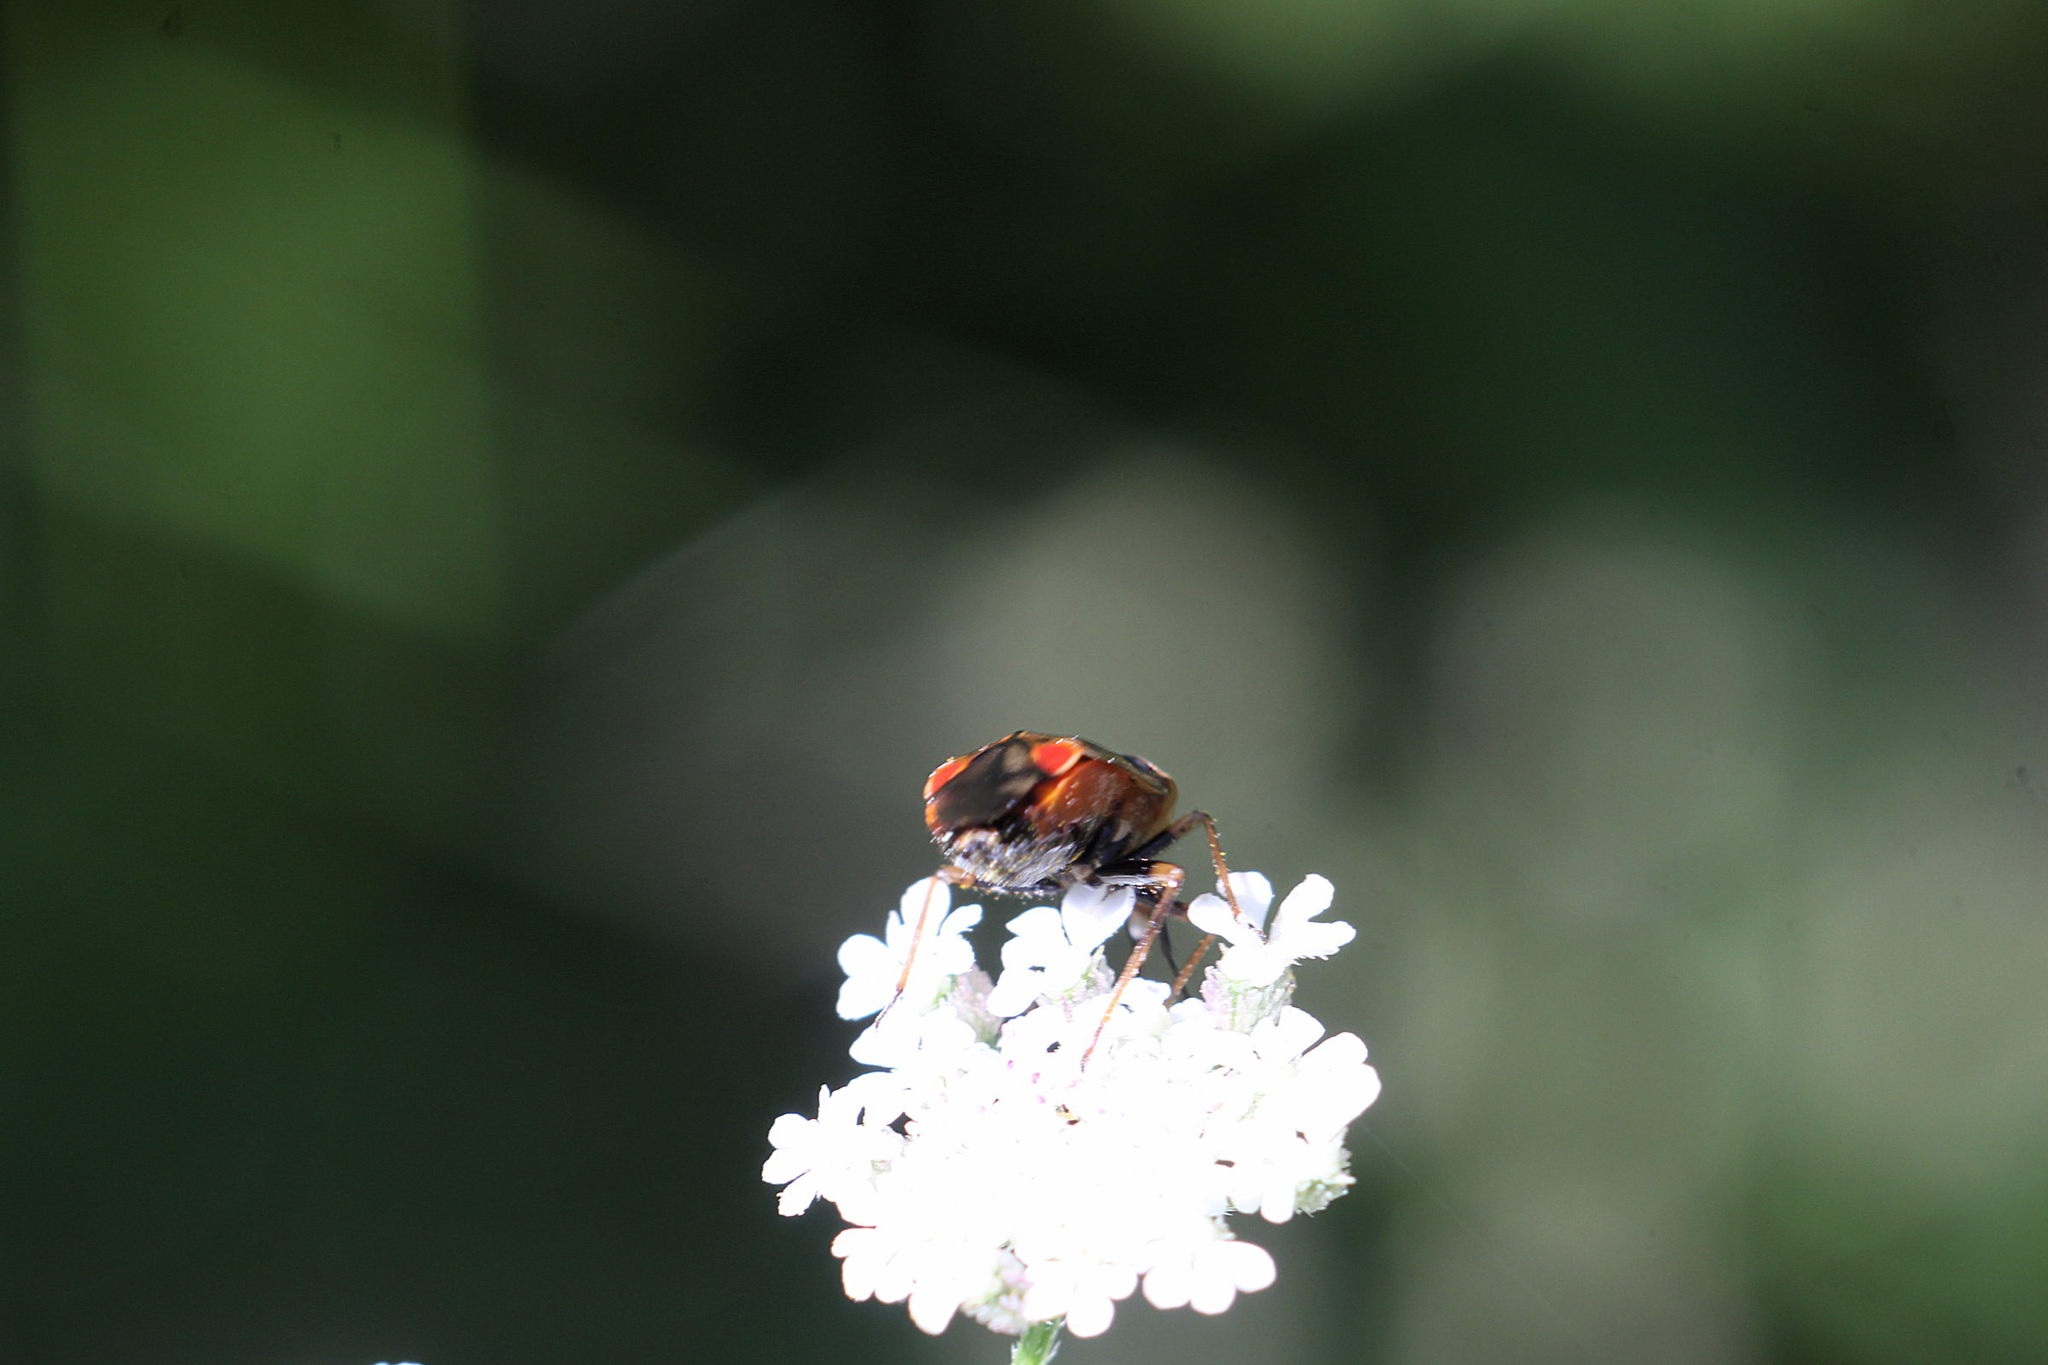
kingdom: Animalia
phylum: Arthropoda
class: Insecta
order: Hemiptera
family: Miridae
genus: Deraeocoris
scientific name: Deraeocoris ruber
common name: Plant bug
